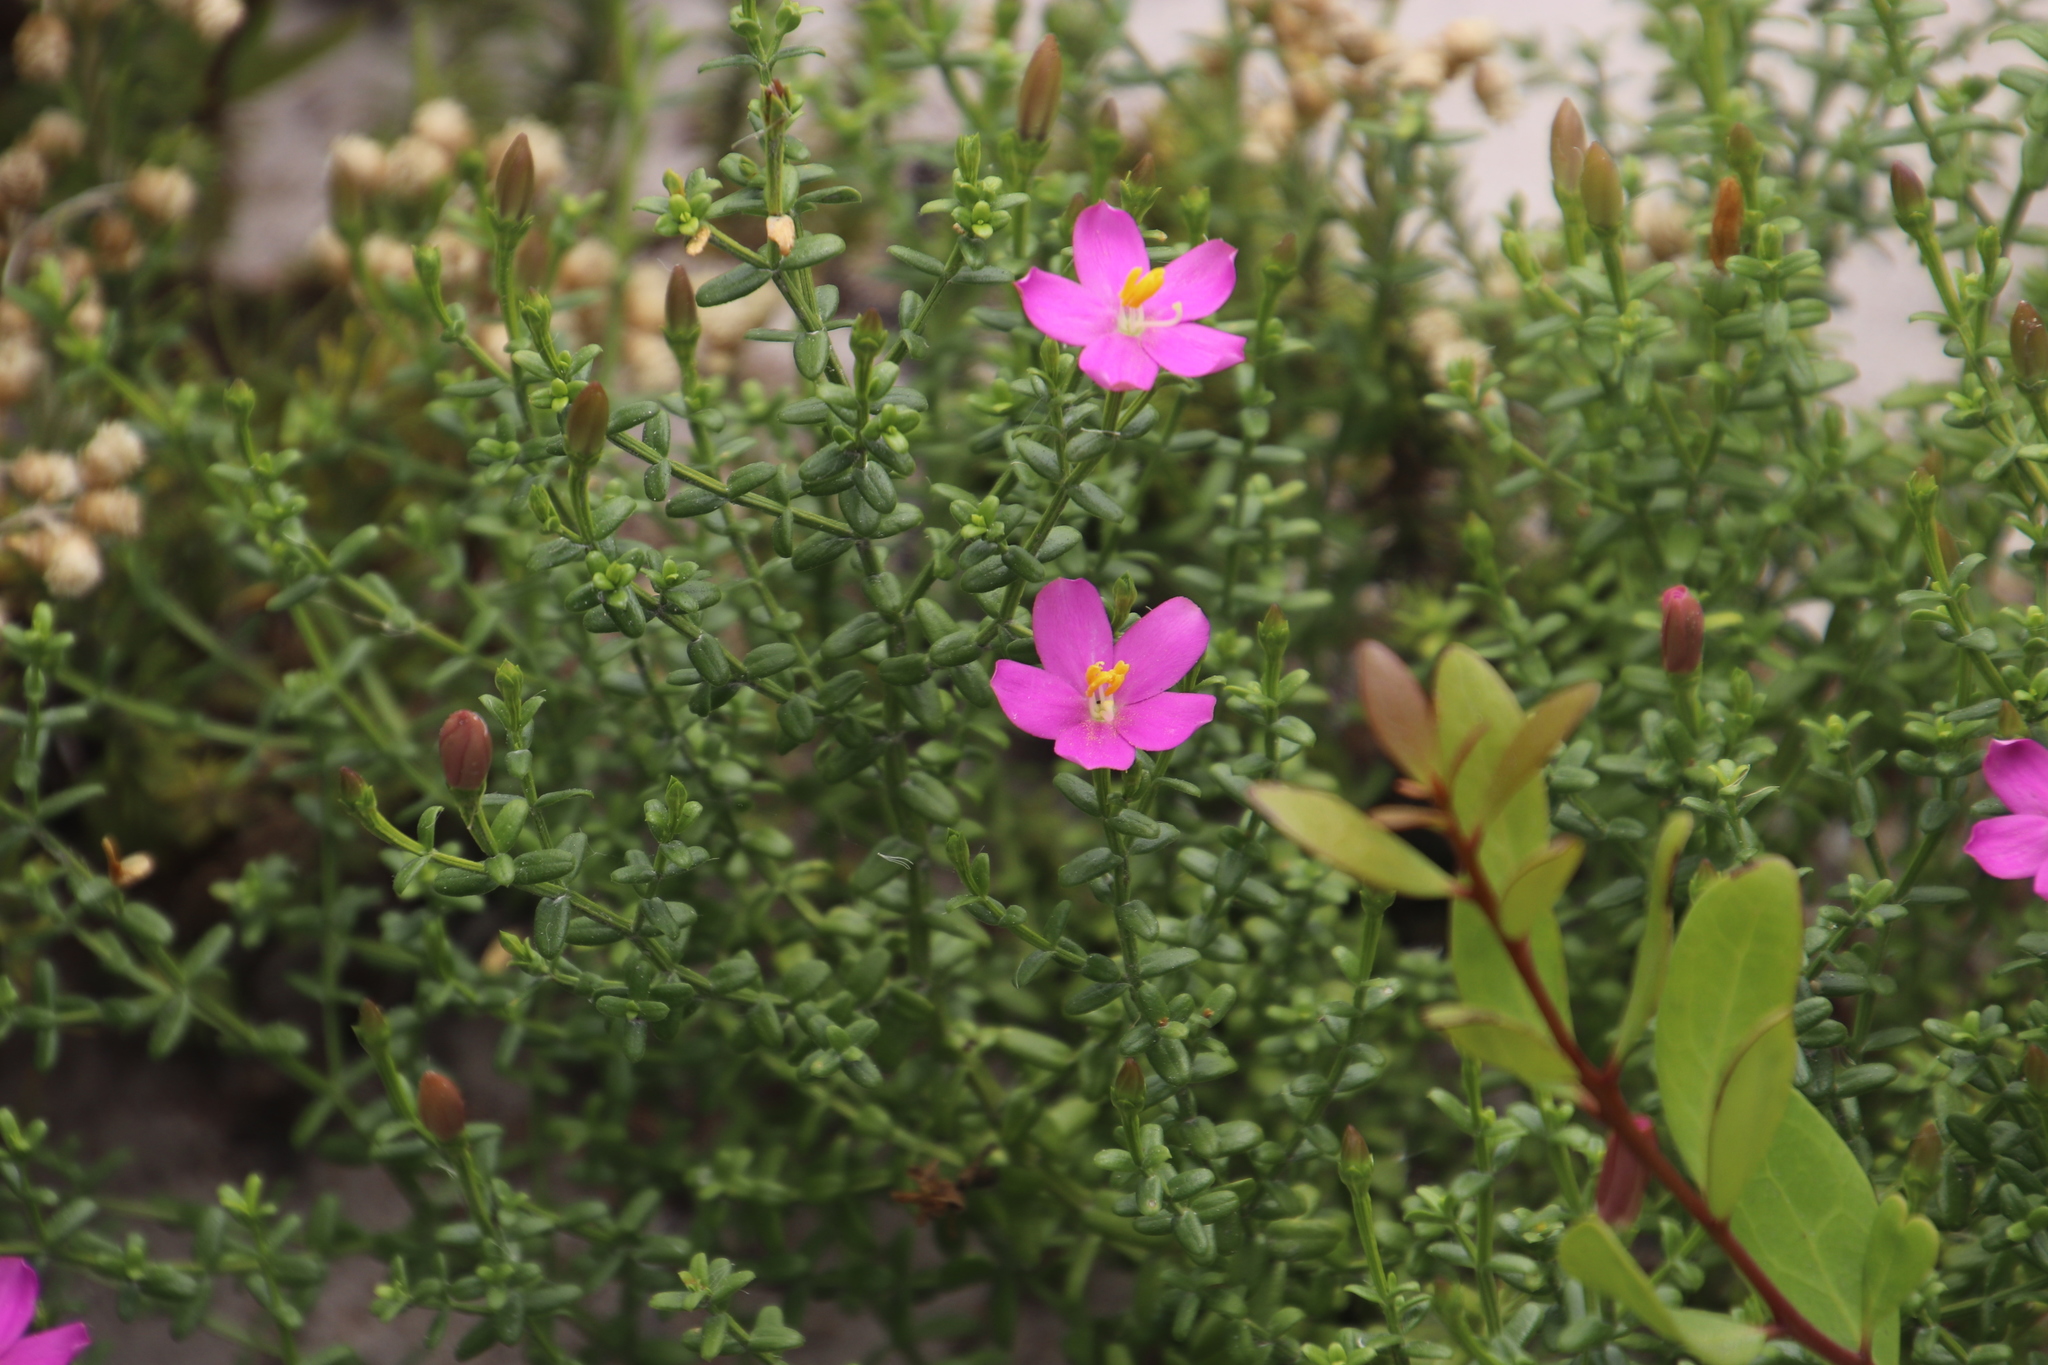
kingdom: Plantae
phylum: Tracheophyta
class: Magnoliopsida
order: Gentianales
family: Gentianaceae
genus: Chironia
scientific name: Chironia baccifera
